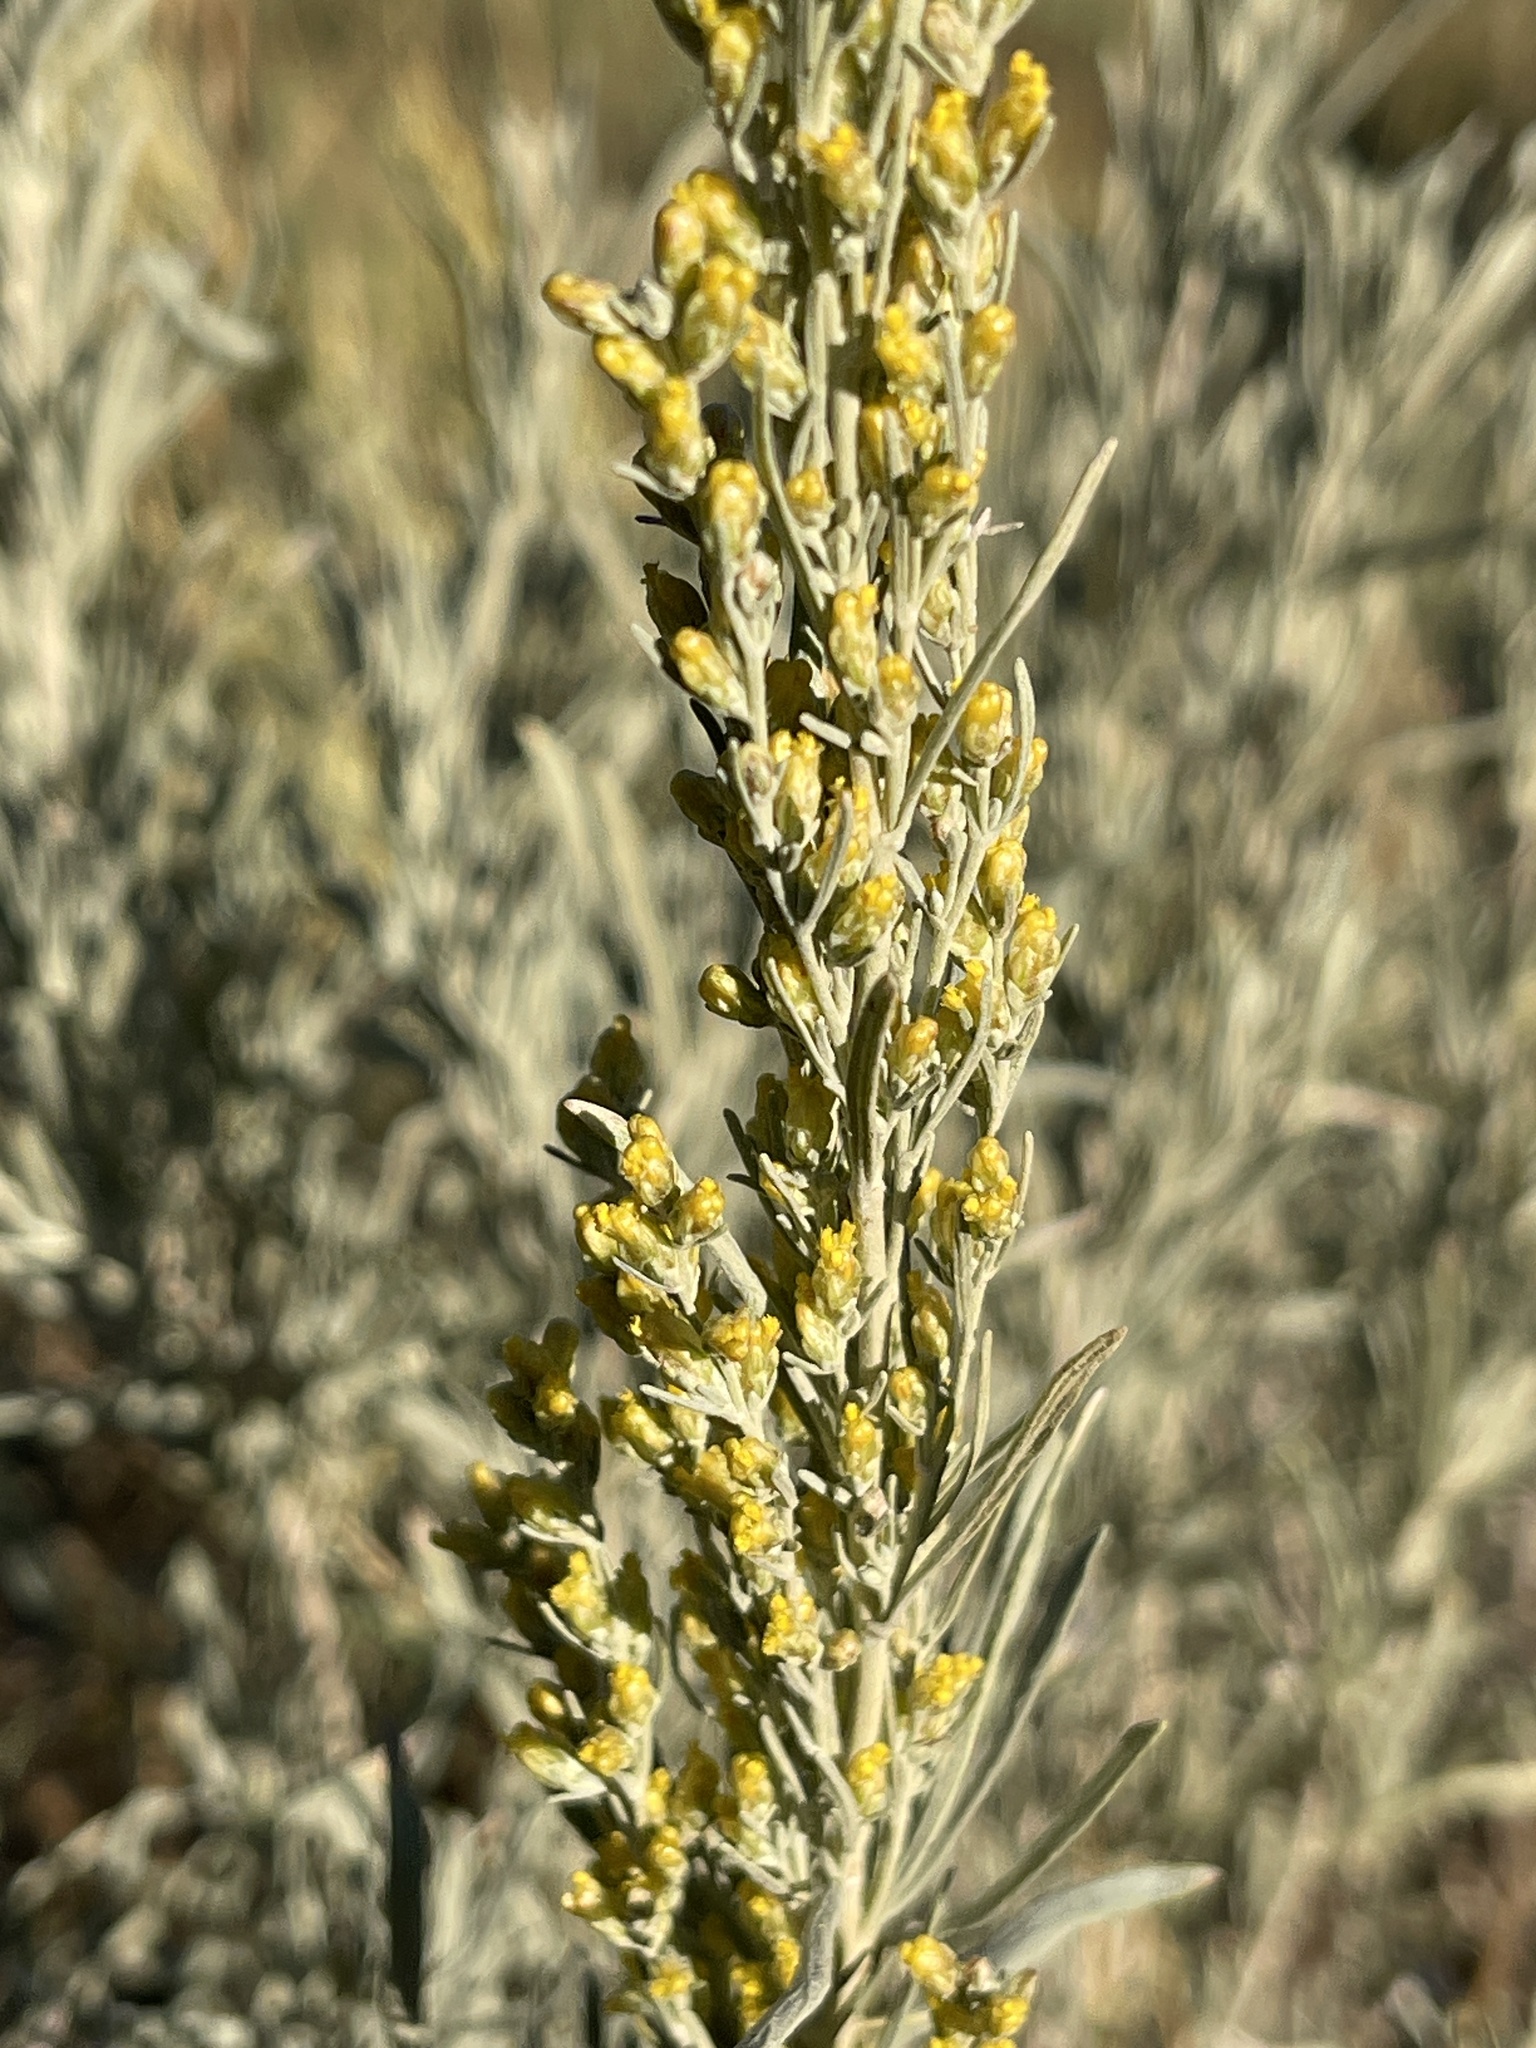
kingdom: Plantae
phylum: Tracheophyta
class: Magnoliopsida
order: Asterales
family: Asteraceae
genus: Artemisia
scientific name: Artemisia cana
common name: Silver sagebrush
